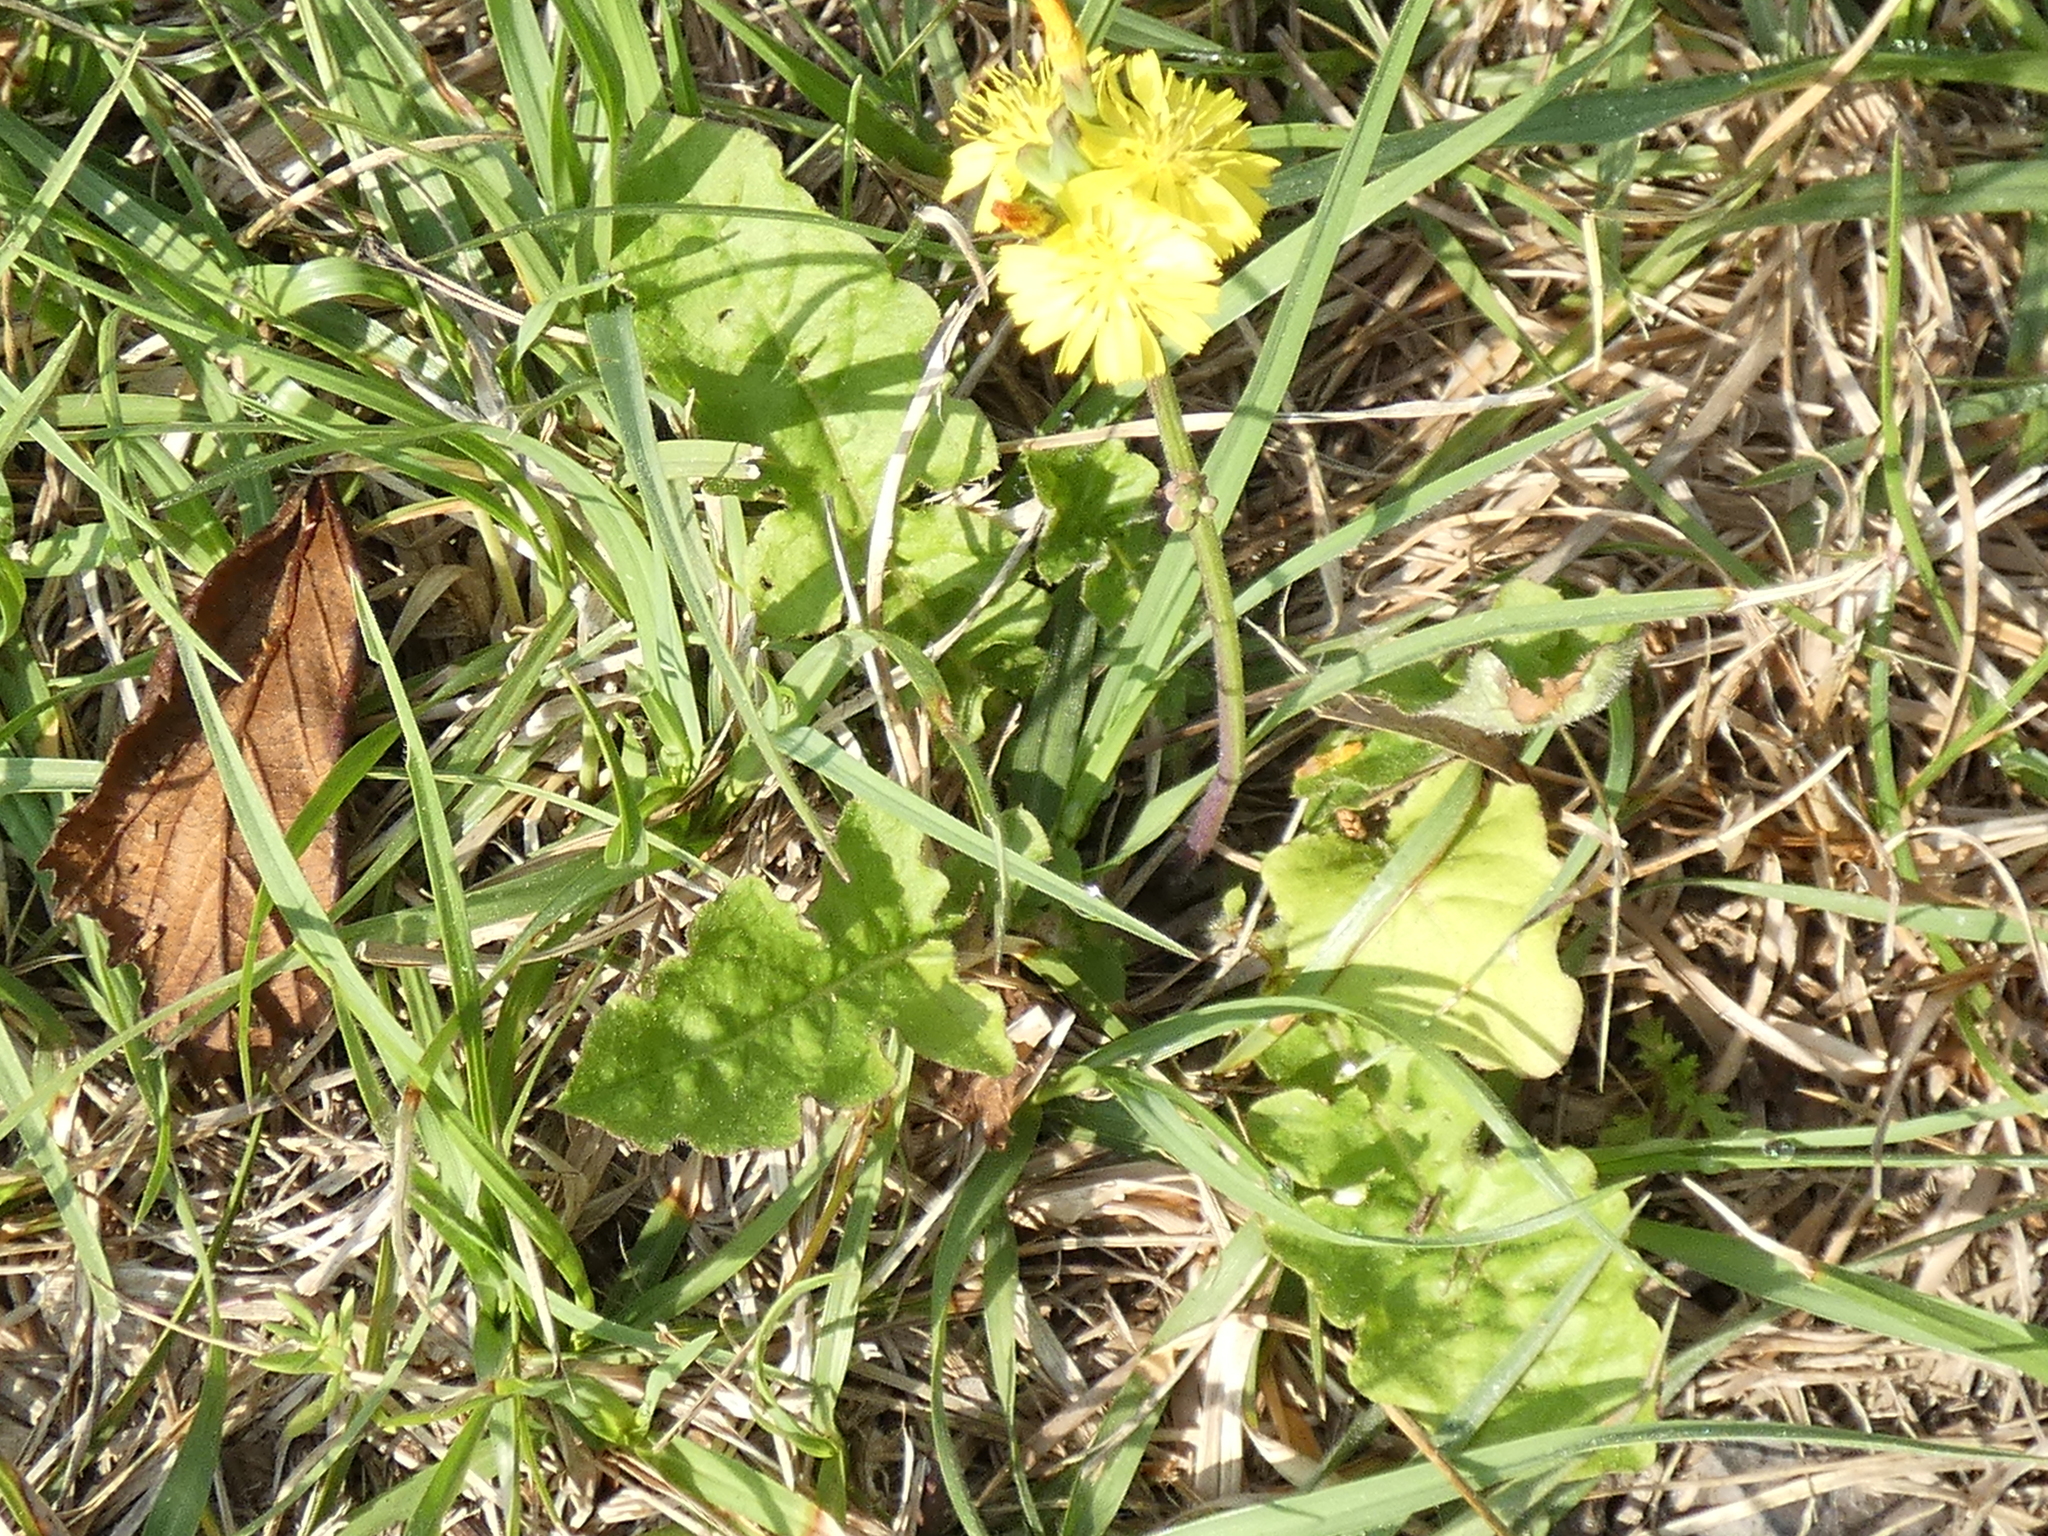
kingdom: Plantae
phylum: Tracheophyta
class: Magnoliopsida
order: Asterales
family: Asteraceae
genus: Youngia
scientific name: Youngia japonica
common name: Oriental false hawksbeard
